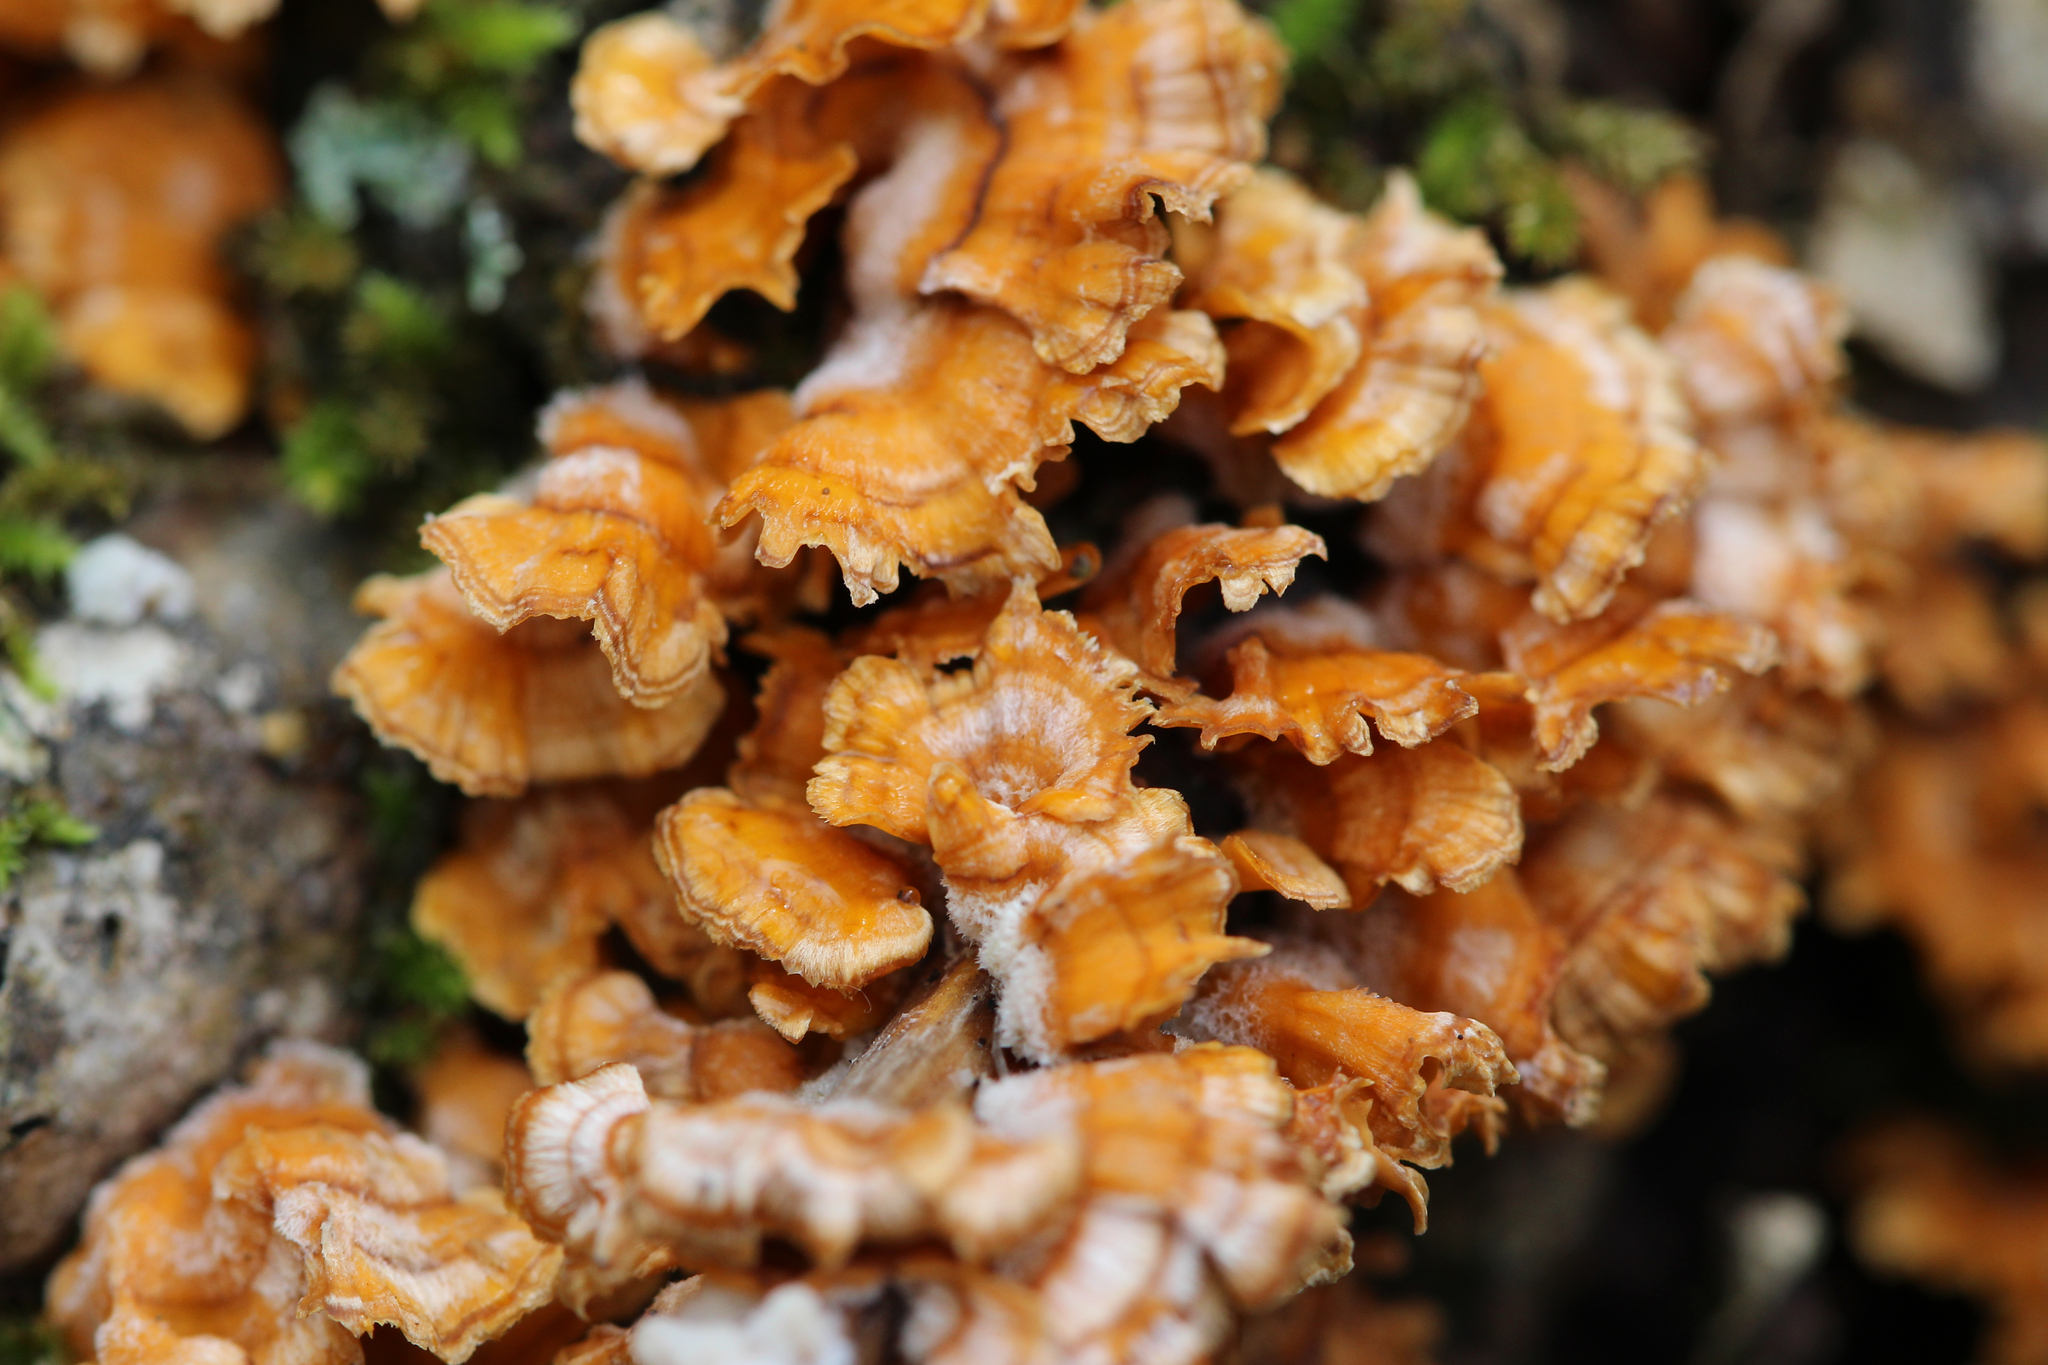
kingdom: Fungi
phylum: Basidiomycota
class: Agaricomycetes
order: Russulales
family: Stereaceae
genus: Stereum
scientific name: Stereum complicatum
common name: Crowded parchment
